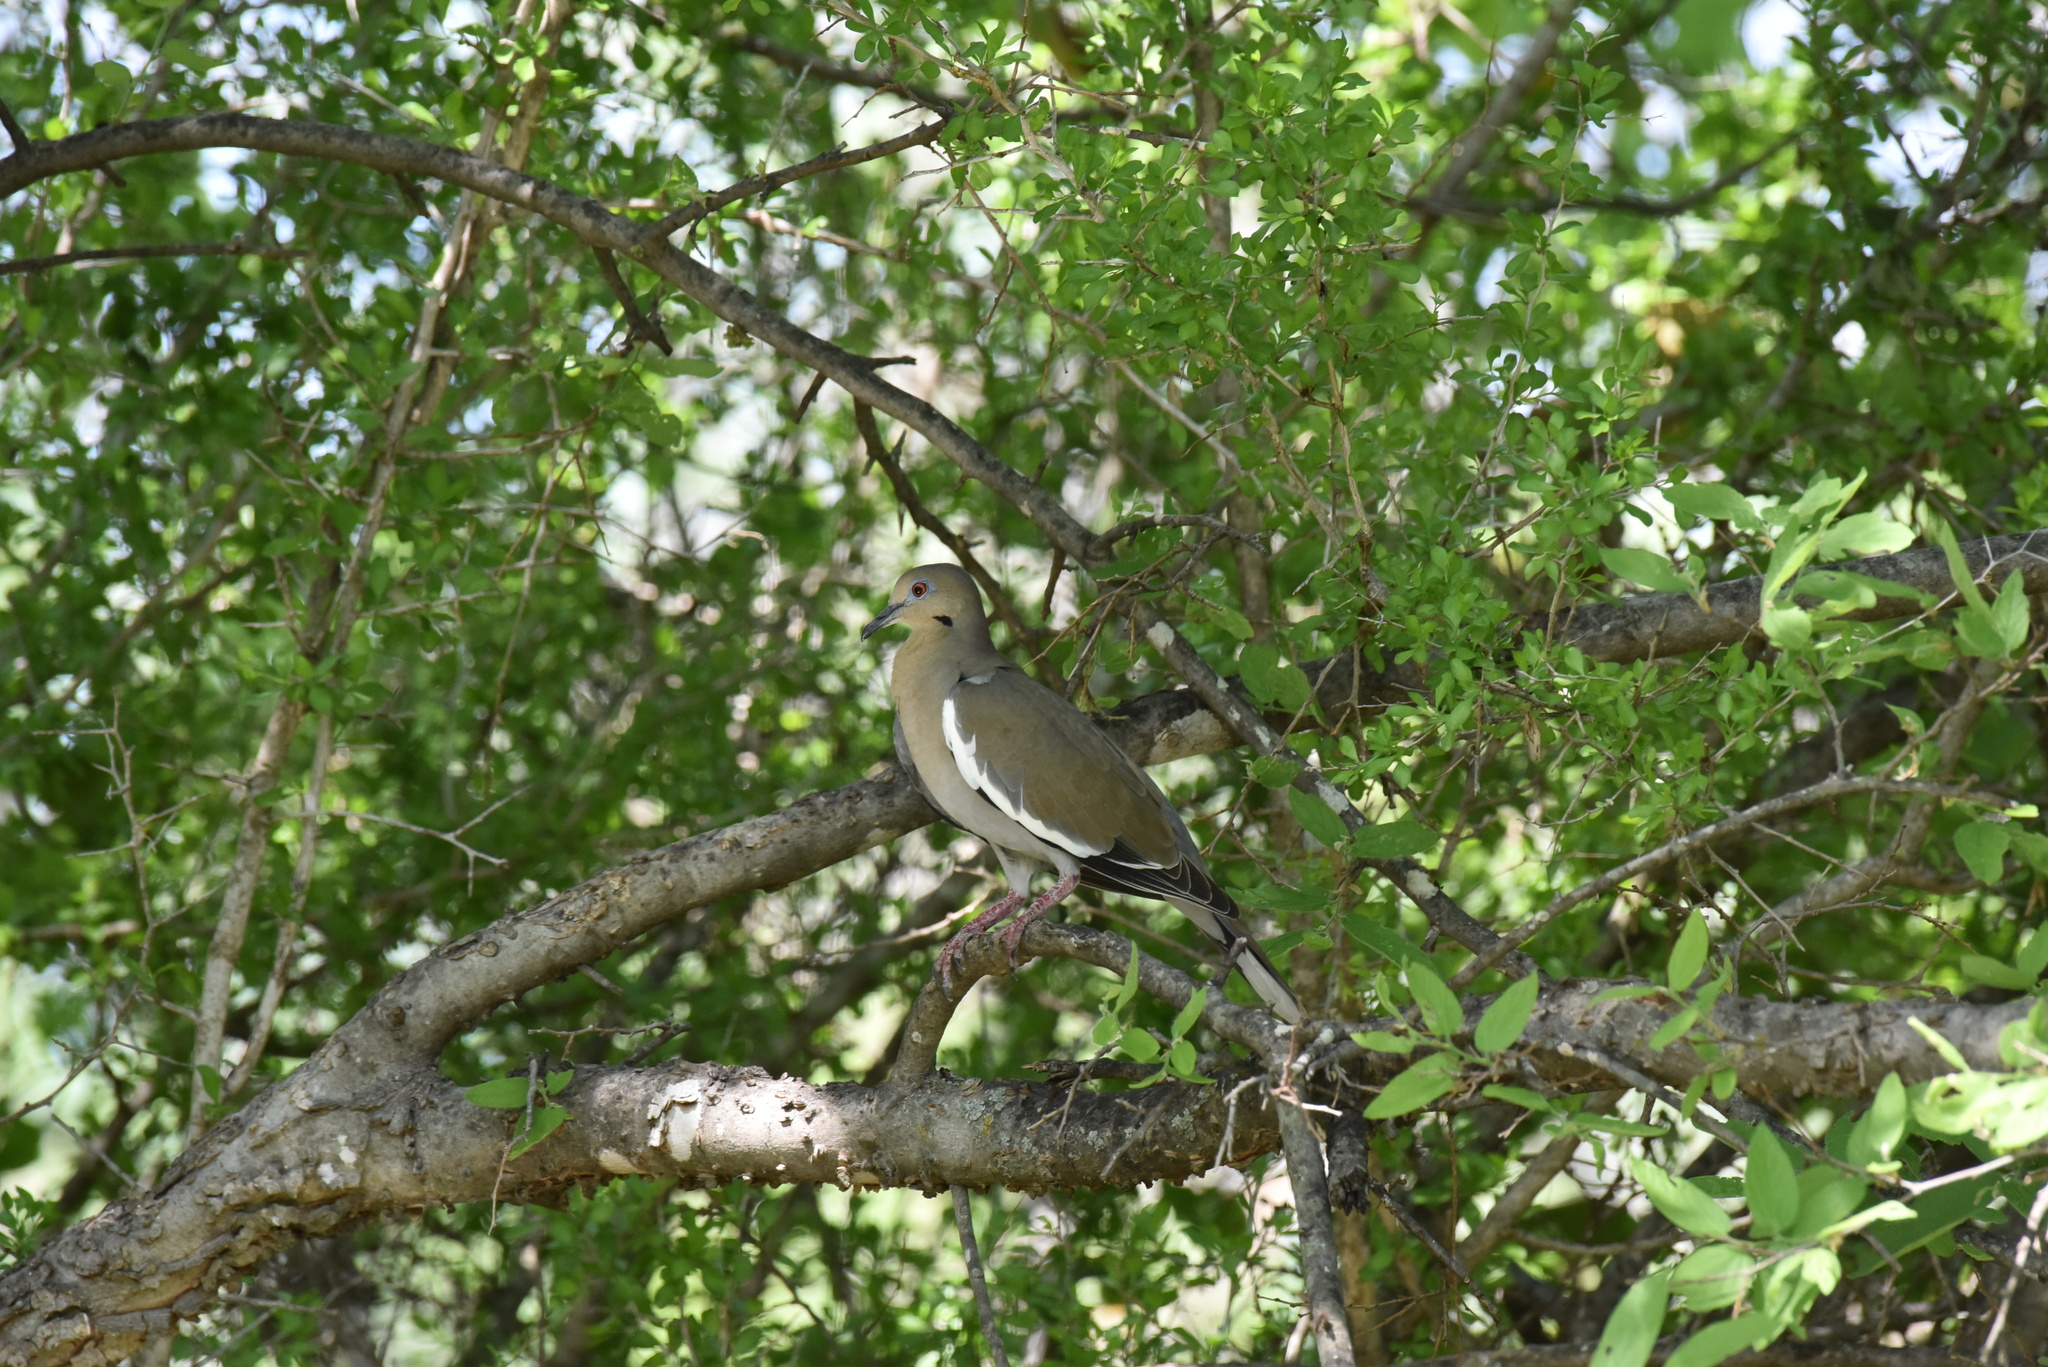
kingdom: Animalia
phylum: Chordata
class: Aves
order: Columbiformes
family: Columbidae
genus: Zenaida
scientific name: Zenaida asiatica
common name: White-winged dove
